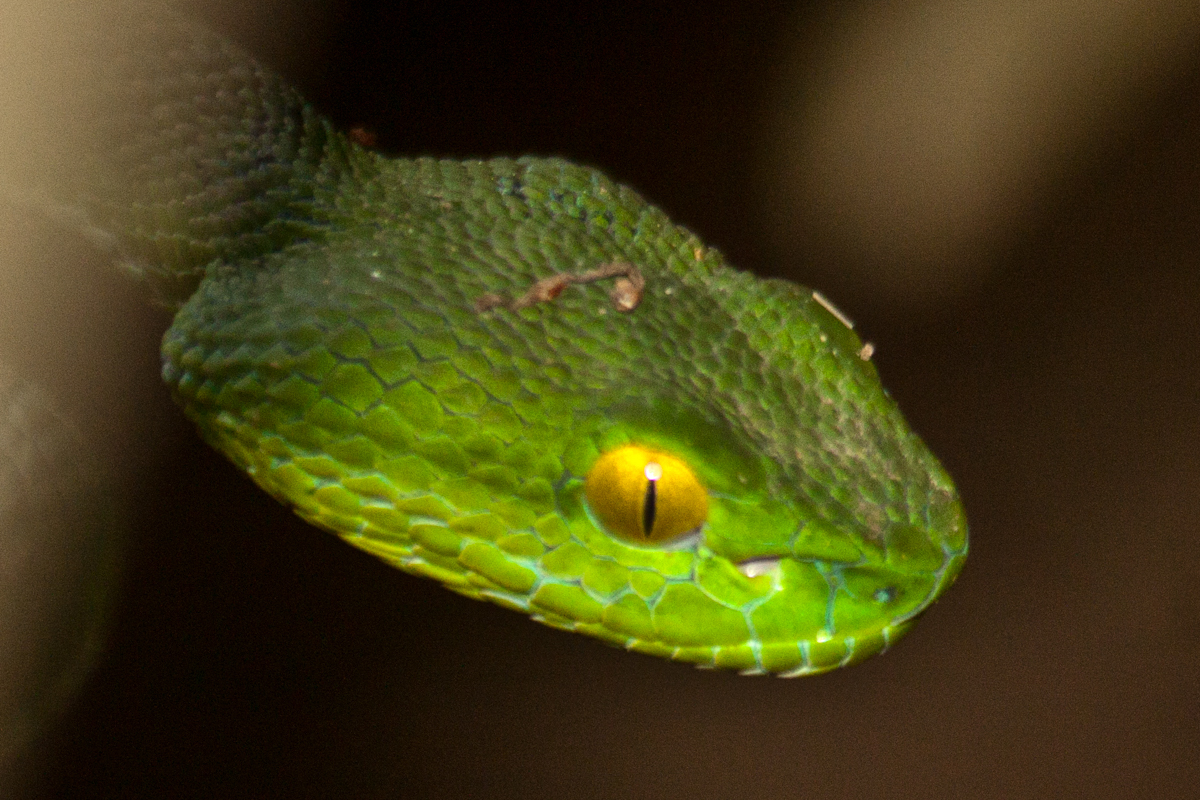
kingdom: Animalia
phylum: Chordata
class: Squamata
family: Viperidae
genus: Trimeresurus
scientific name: Trimeresurus cardamomensis
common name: Cardamom mountains green pitviper
